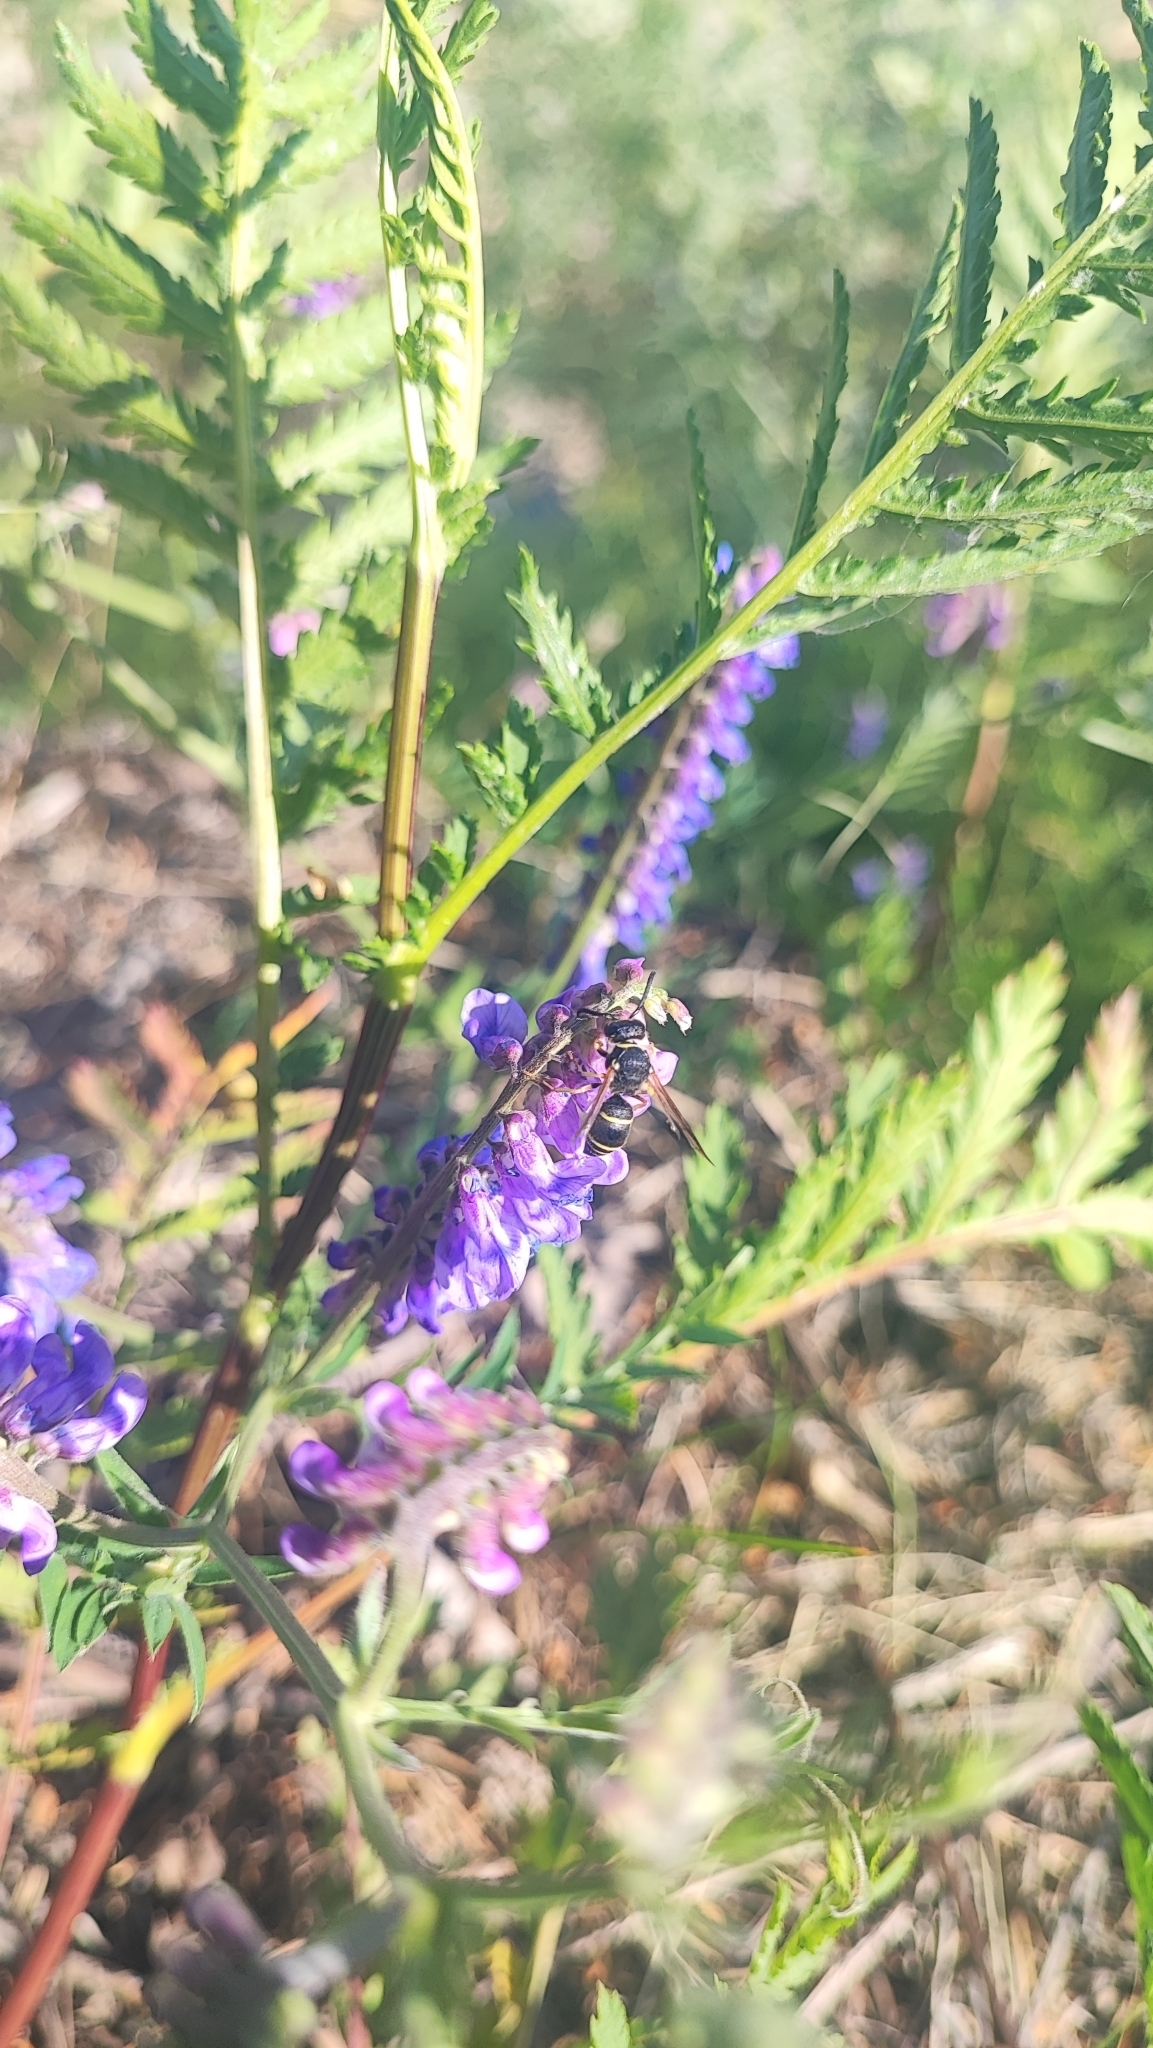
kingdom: Plantae
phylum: Tracheophyta
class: Magnoliopsida
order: Fabales
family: Fabaceae
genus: Vicia
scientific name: Vicia cracca
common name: Bird vetch
